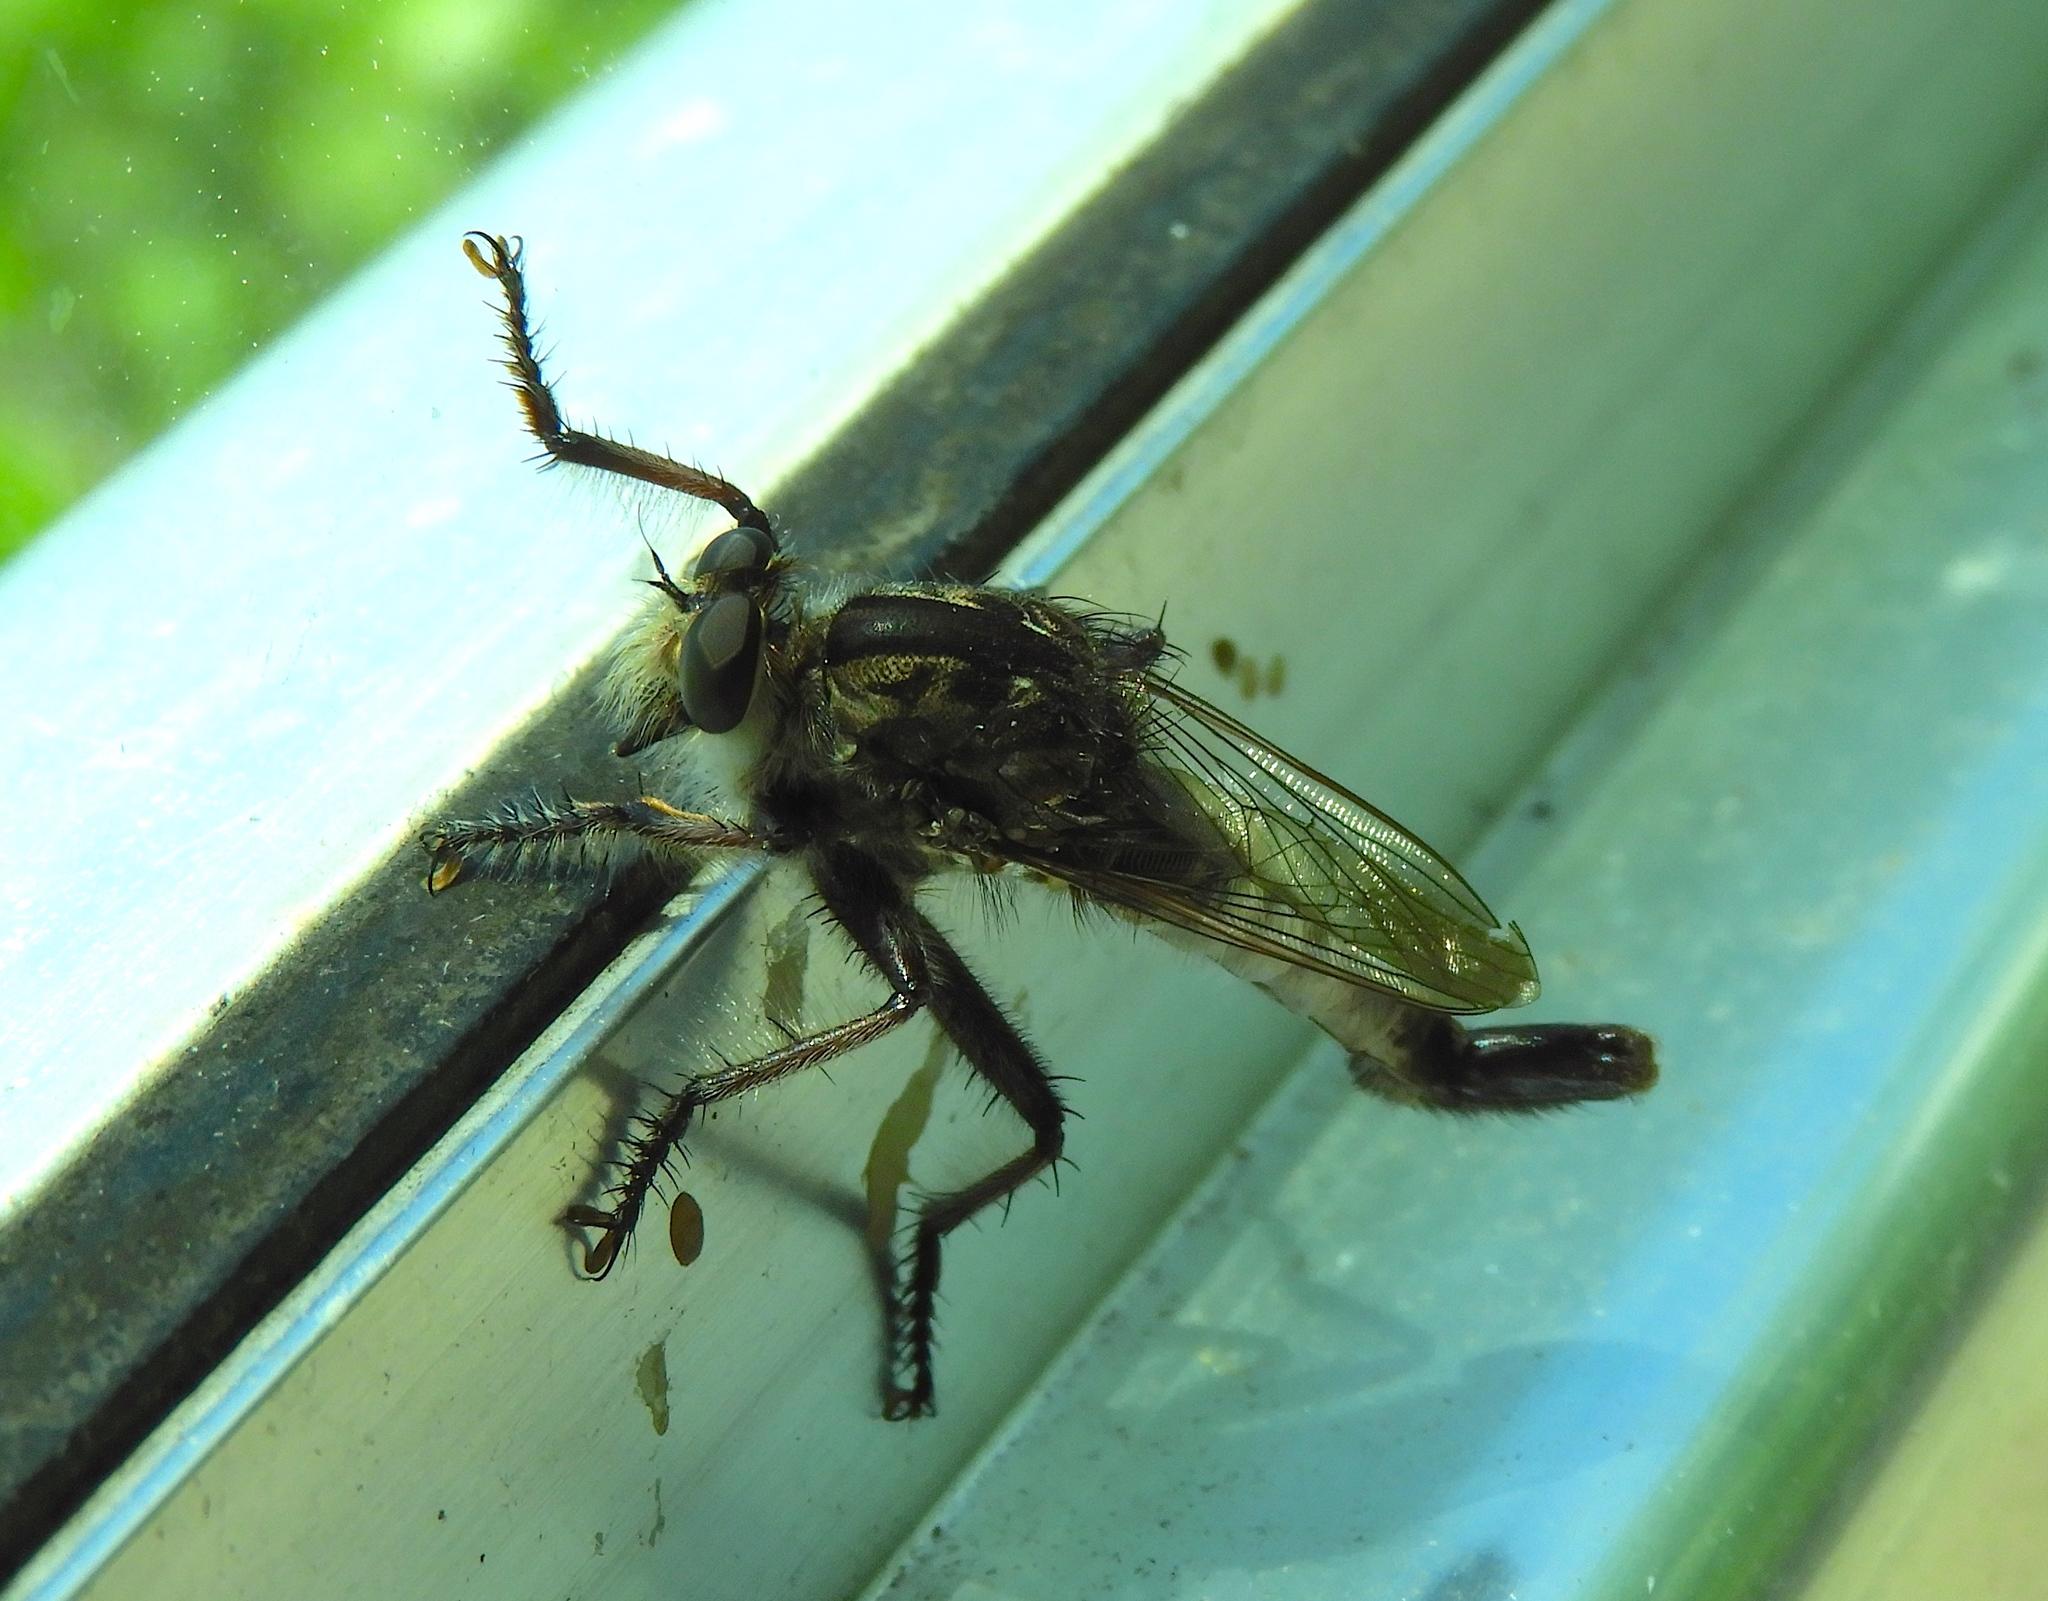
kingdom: Animalia
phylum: Arthropoda
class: Insecta
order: Diptera
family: Asilidae
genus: Efferia
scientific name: Efferia
